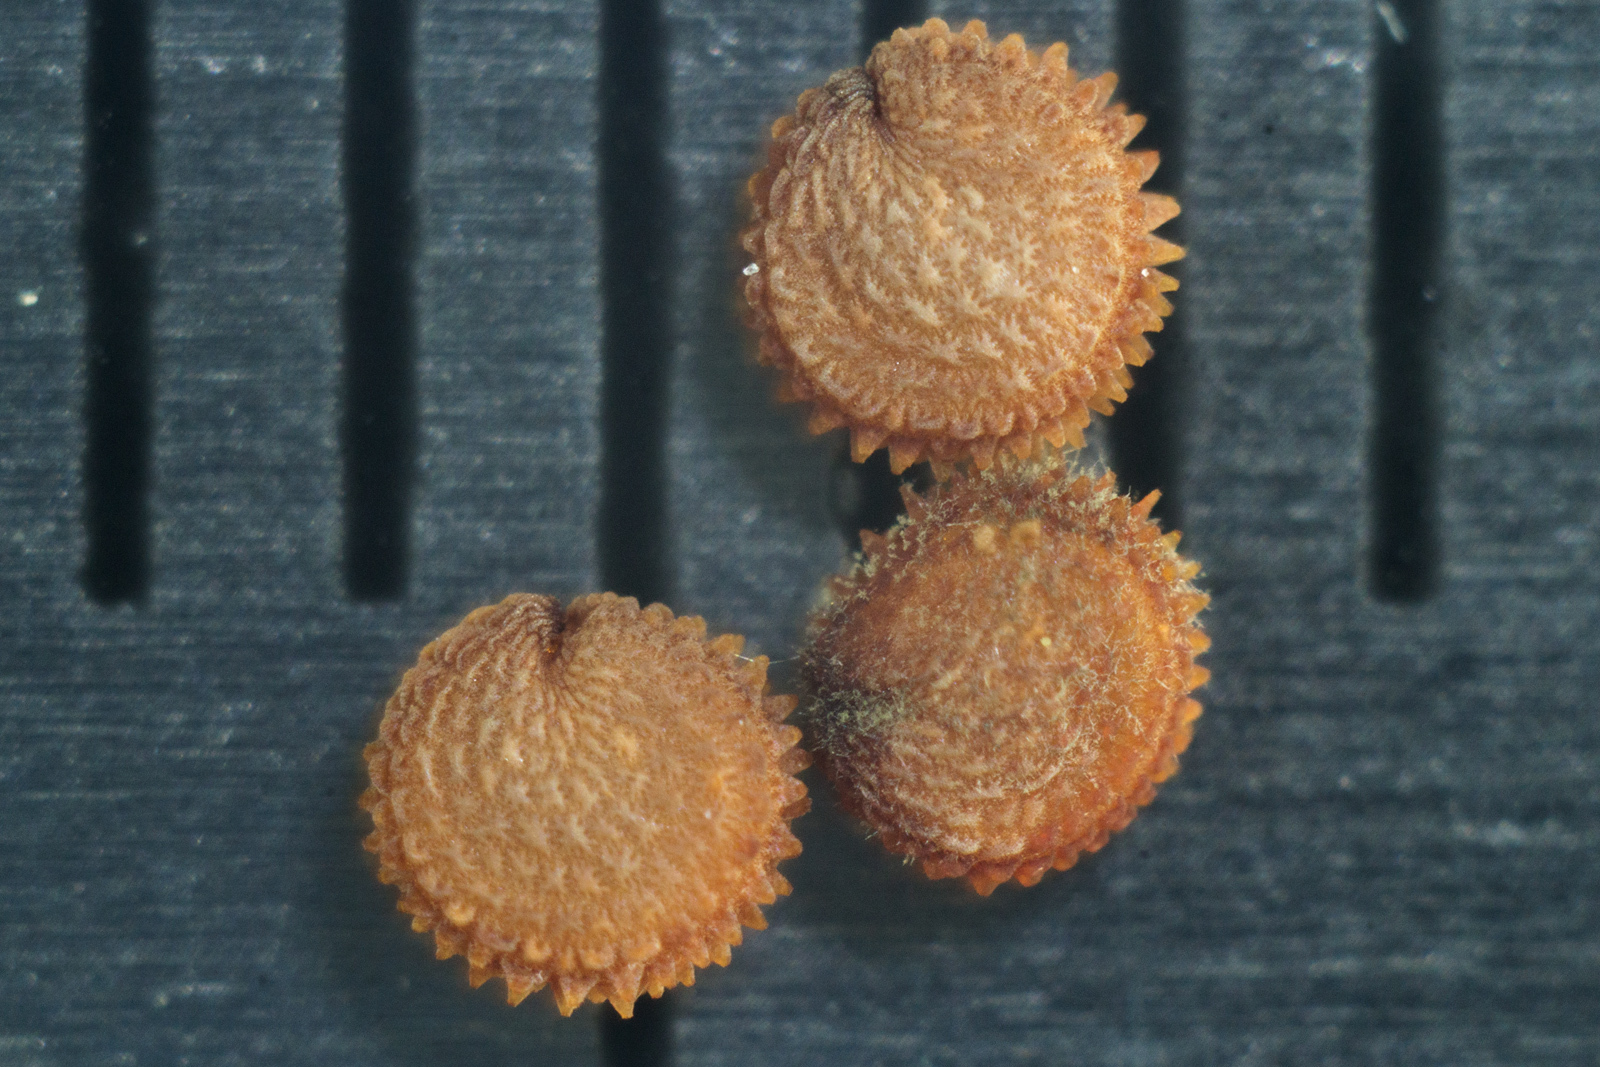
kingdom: Plantae
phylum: Tracheophyta
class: Magnoliopsida
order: Caryophyllales
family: Caryophyllaceae
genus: Stellaria
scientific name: Stellaria neglecta
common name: Greater chickweed
